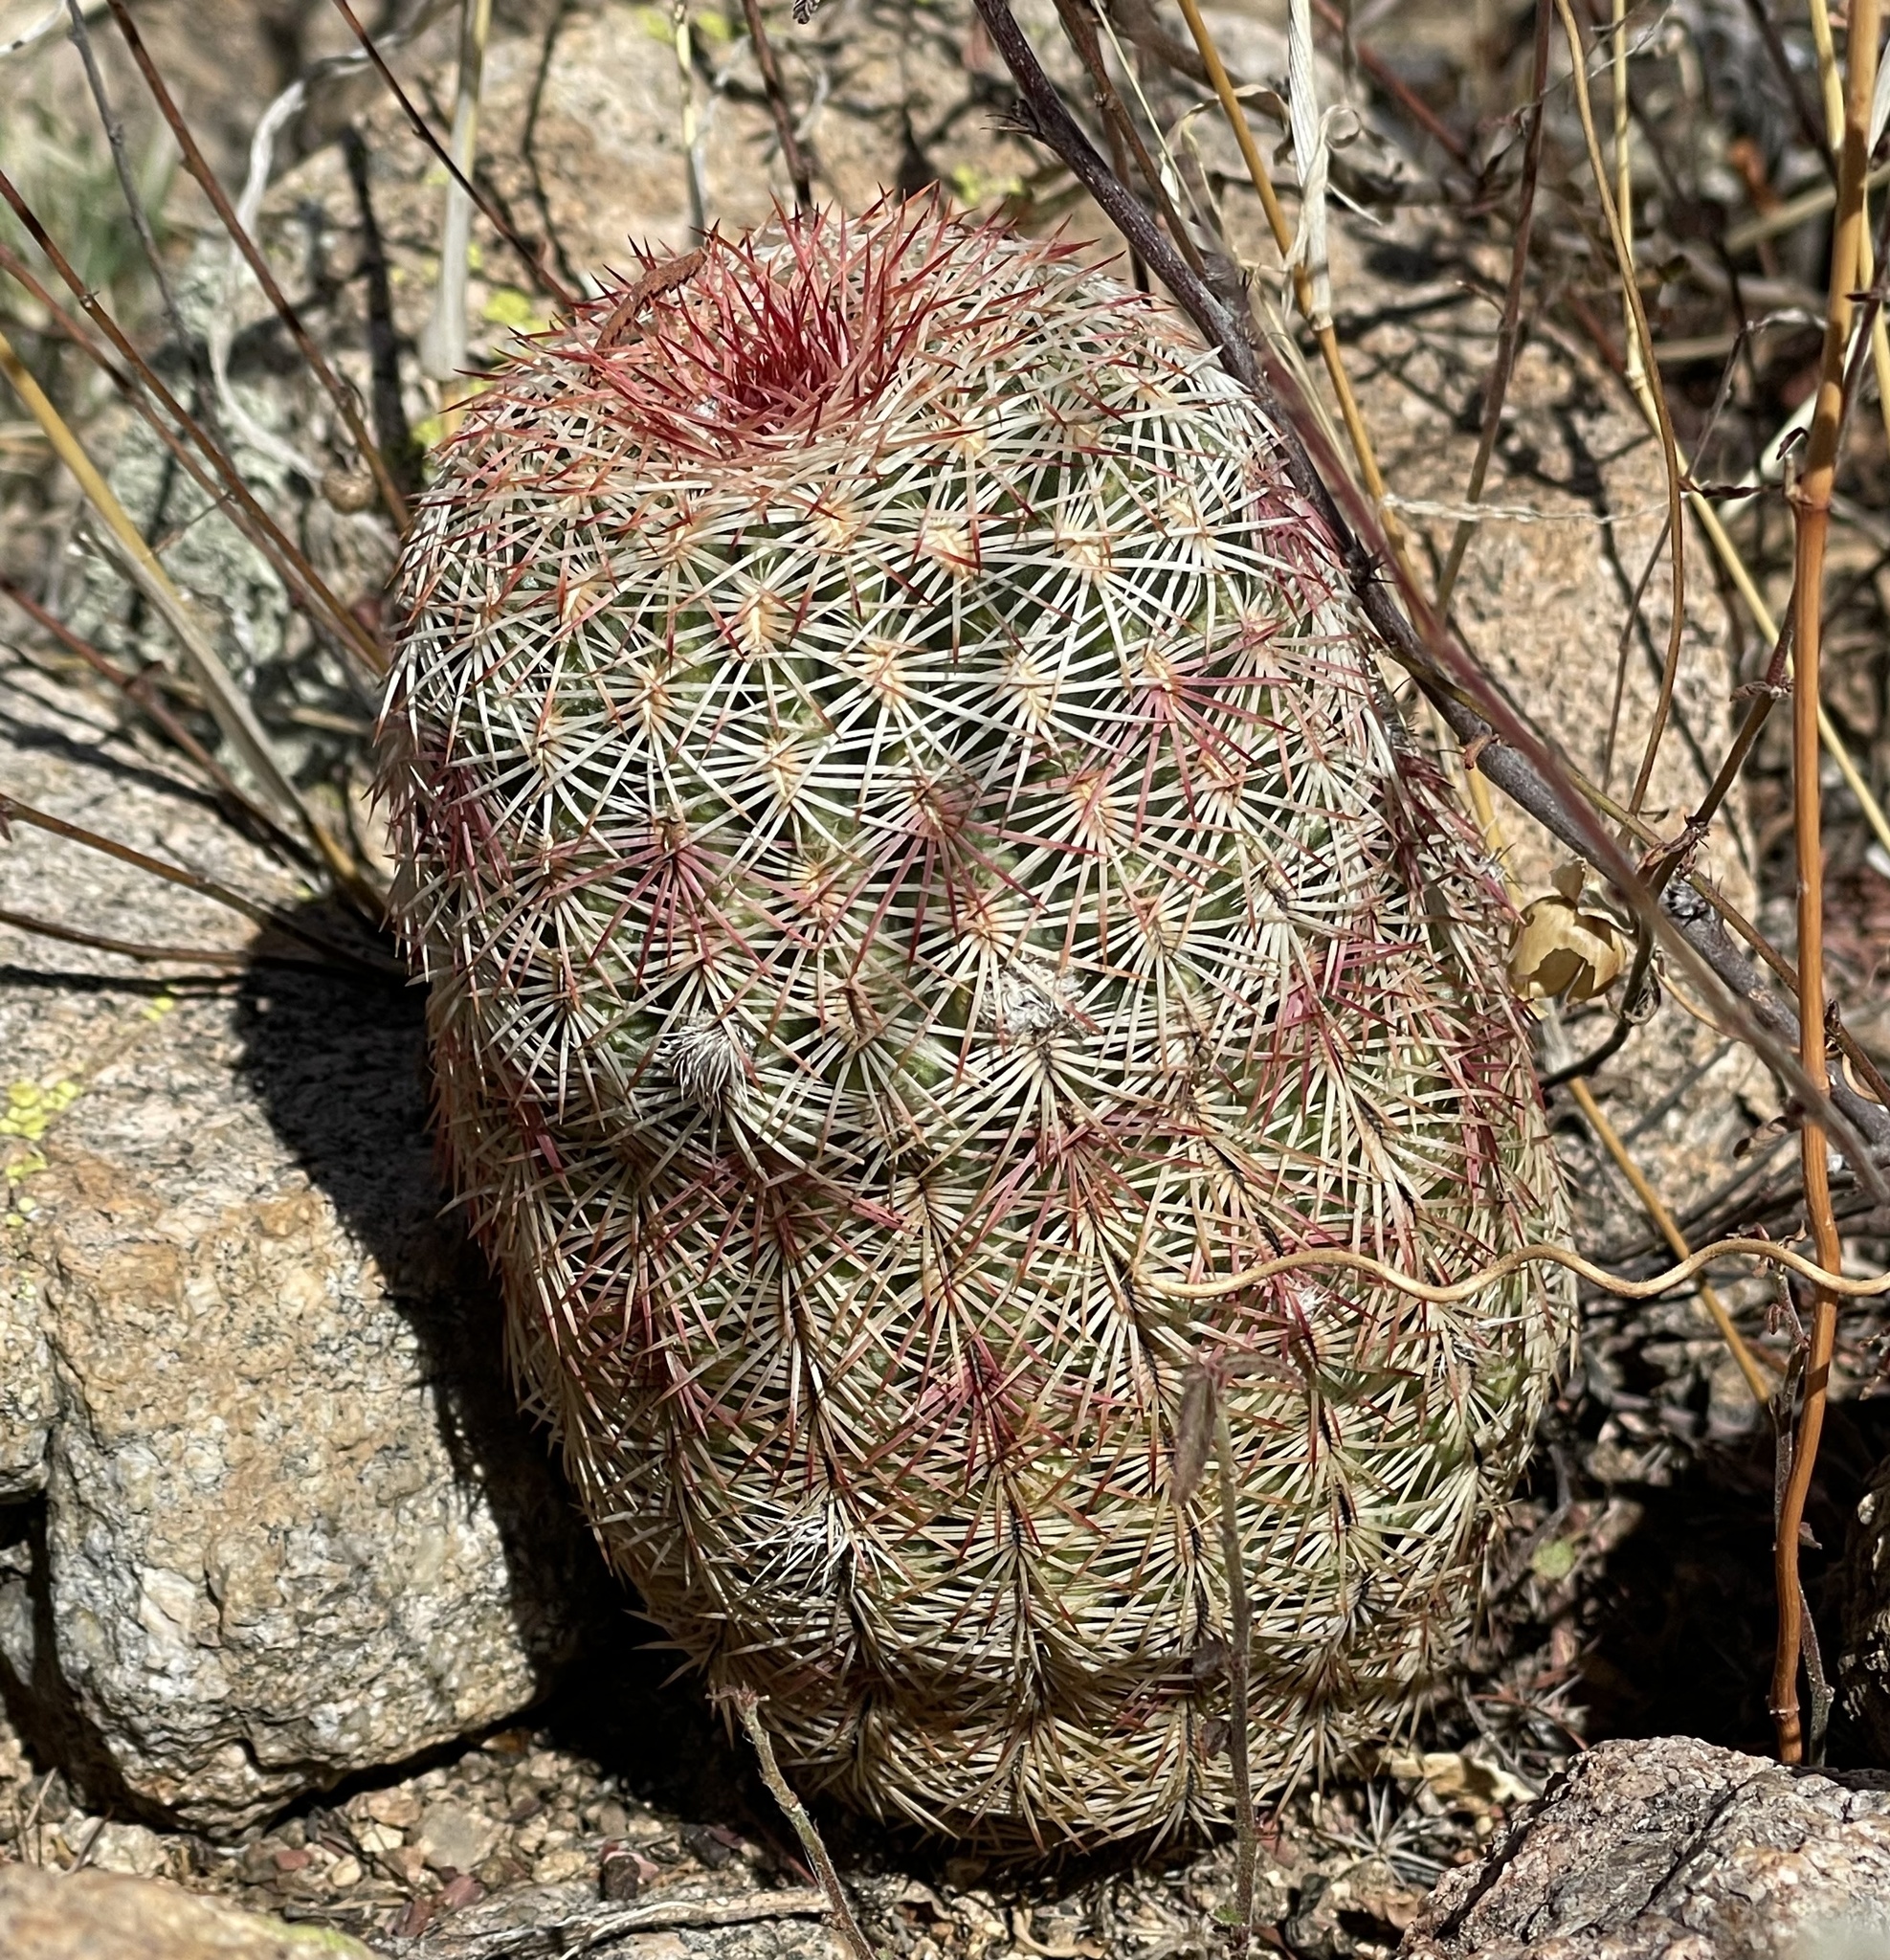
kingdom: Plantae
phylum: Tracheophyta
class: Magnoliopsida
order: Caryophyllales
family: Cactaceae
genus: Echinocereus
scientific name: Echinocereus rigidissimus
